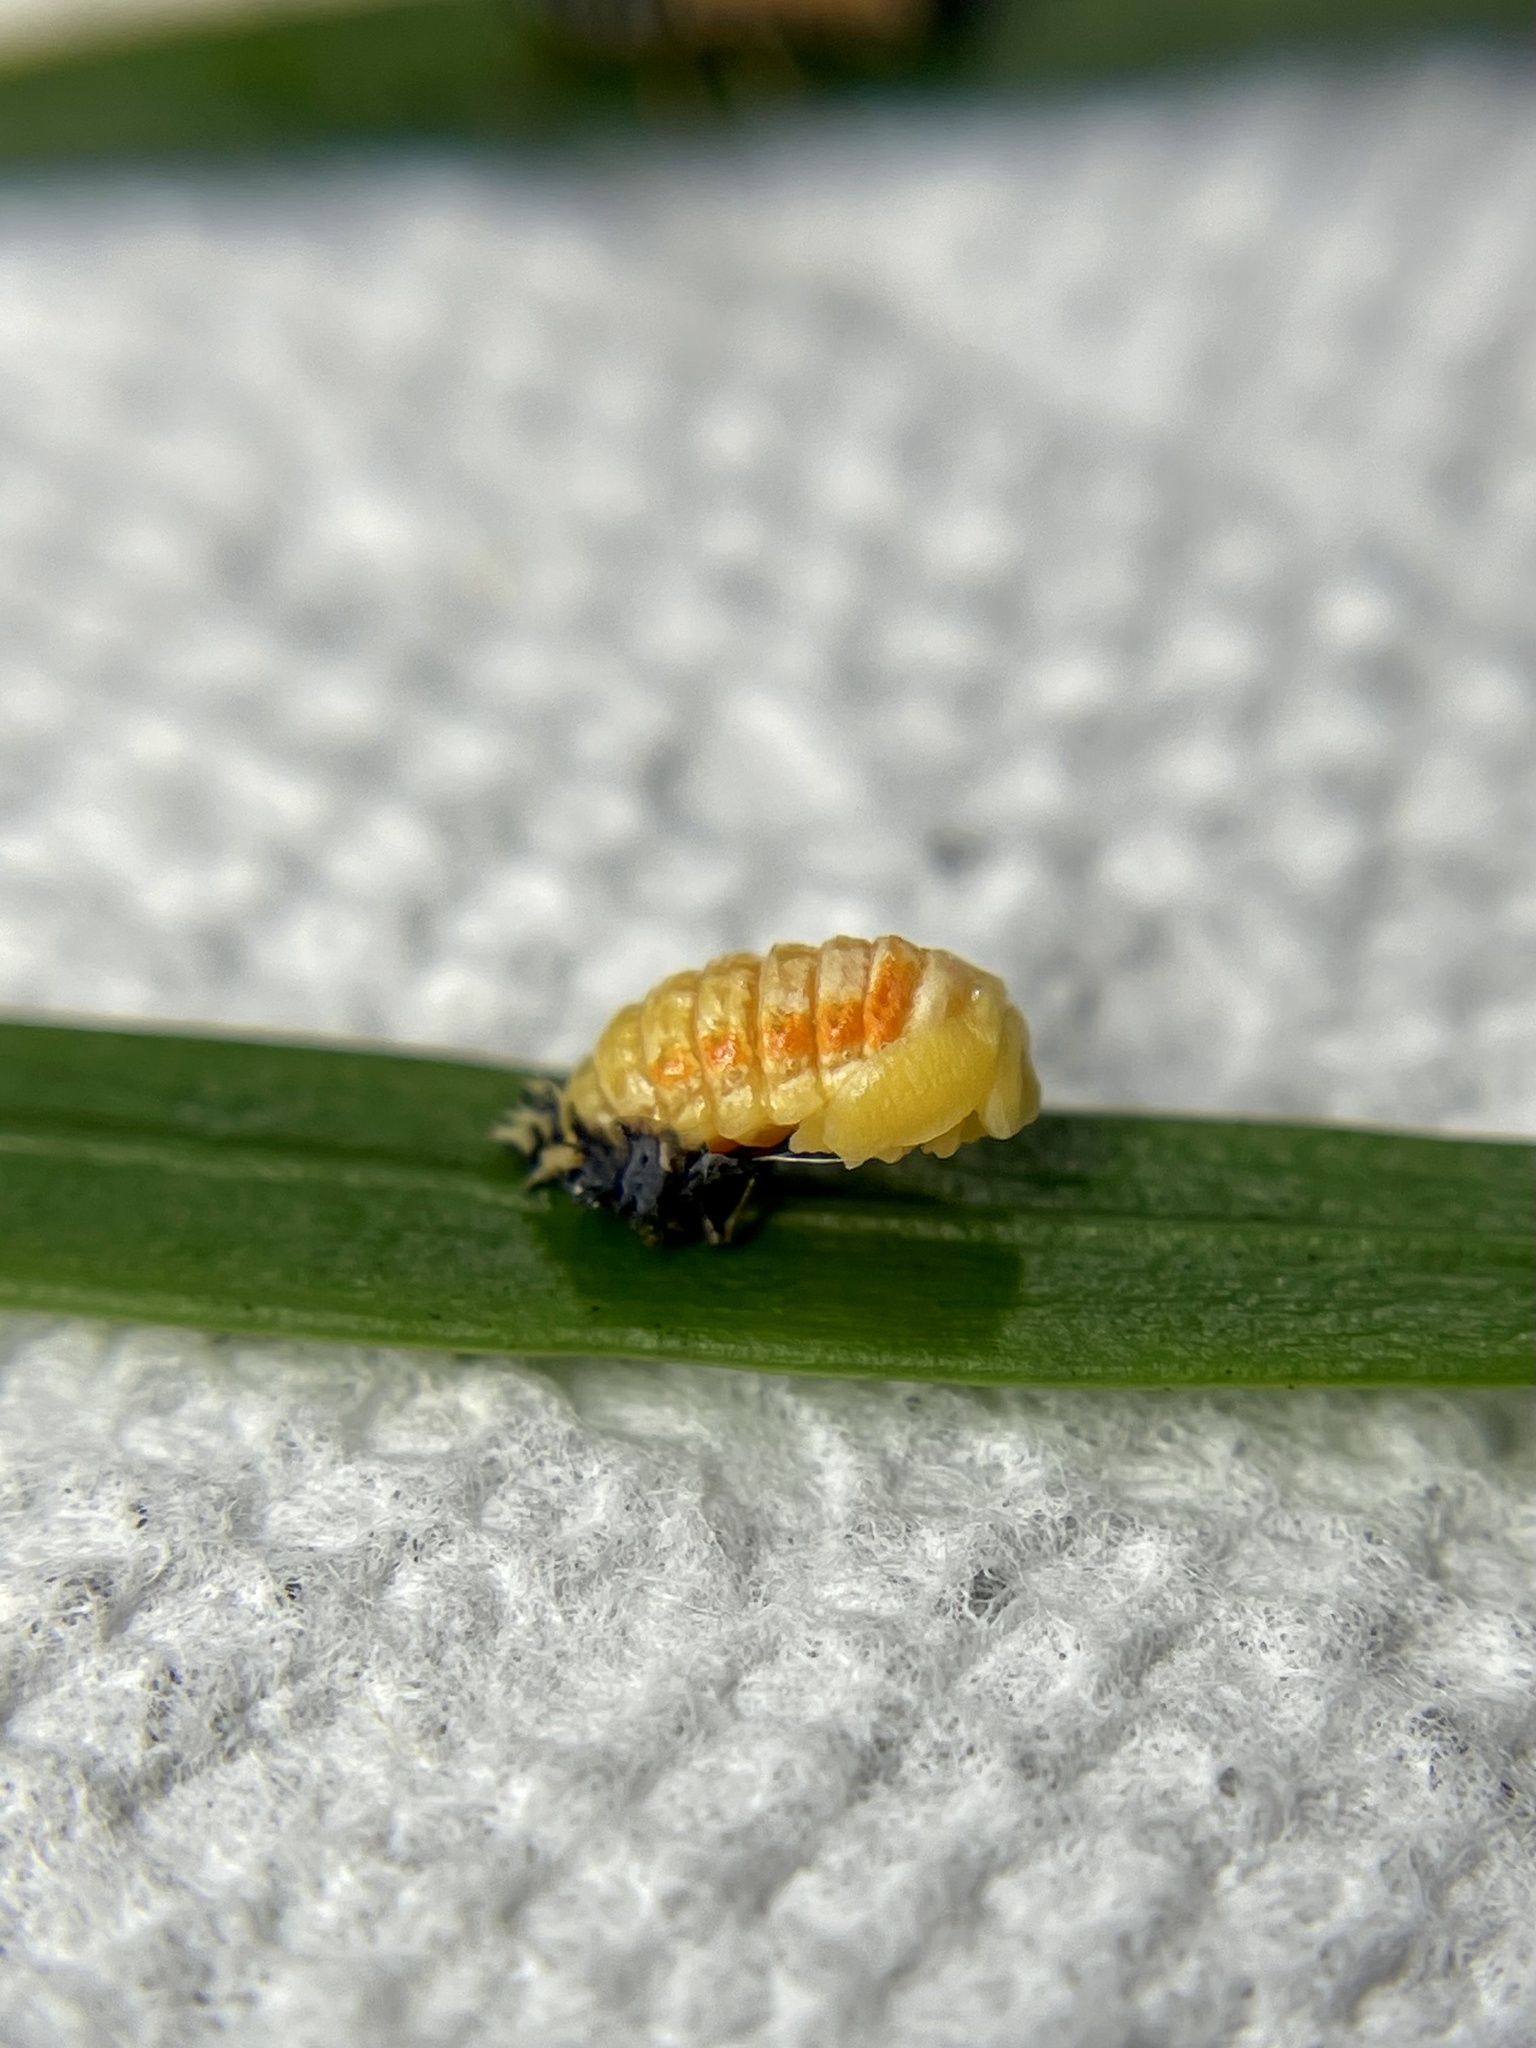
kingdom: Animalia
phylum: Arthropoda
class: Insecta
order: Coleoptera
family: Coccinellidae
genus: Harmonia
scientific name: Harmonia axyridis
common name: Harlequin ladybird
